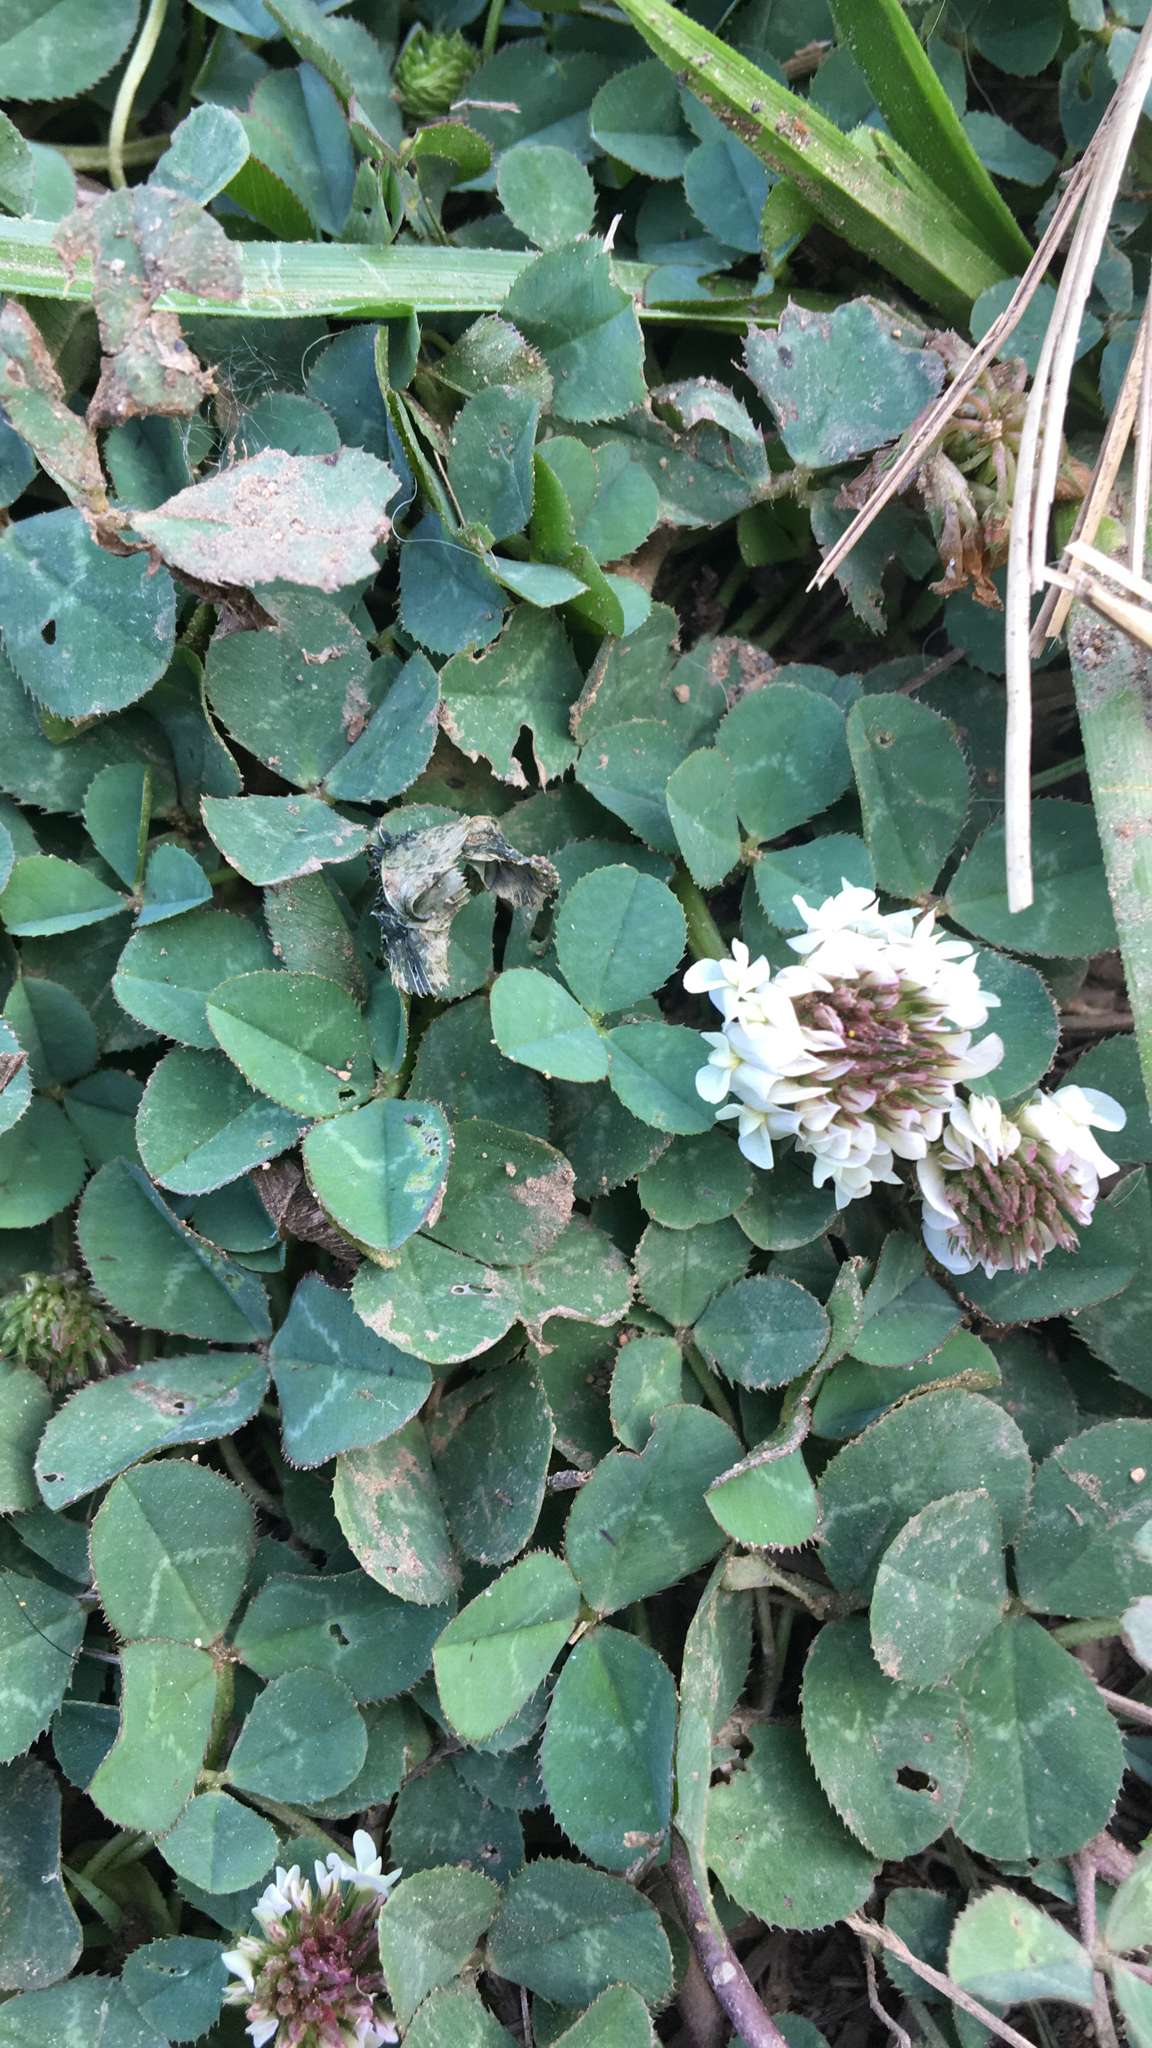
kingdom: Plantae
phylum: Tracheophyta
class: Magnoliopsida
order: Fabales
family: Fabaceae
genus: Trifolium
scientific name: Trifolium repens
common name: White clover
